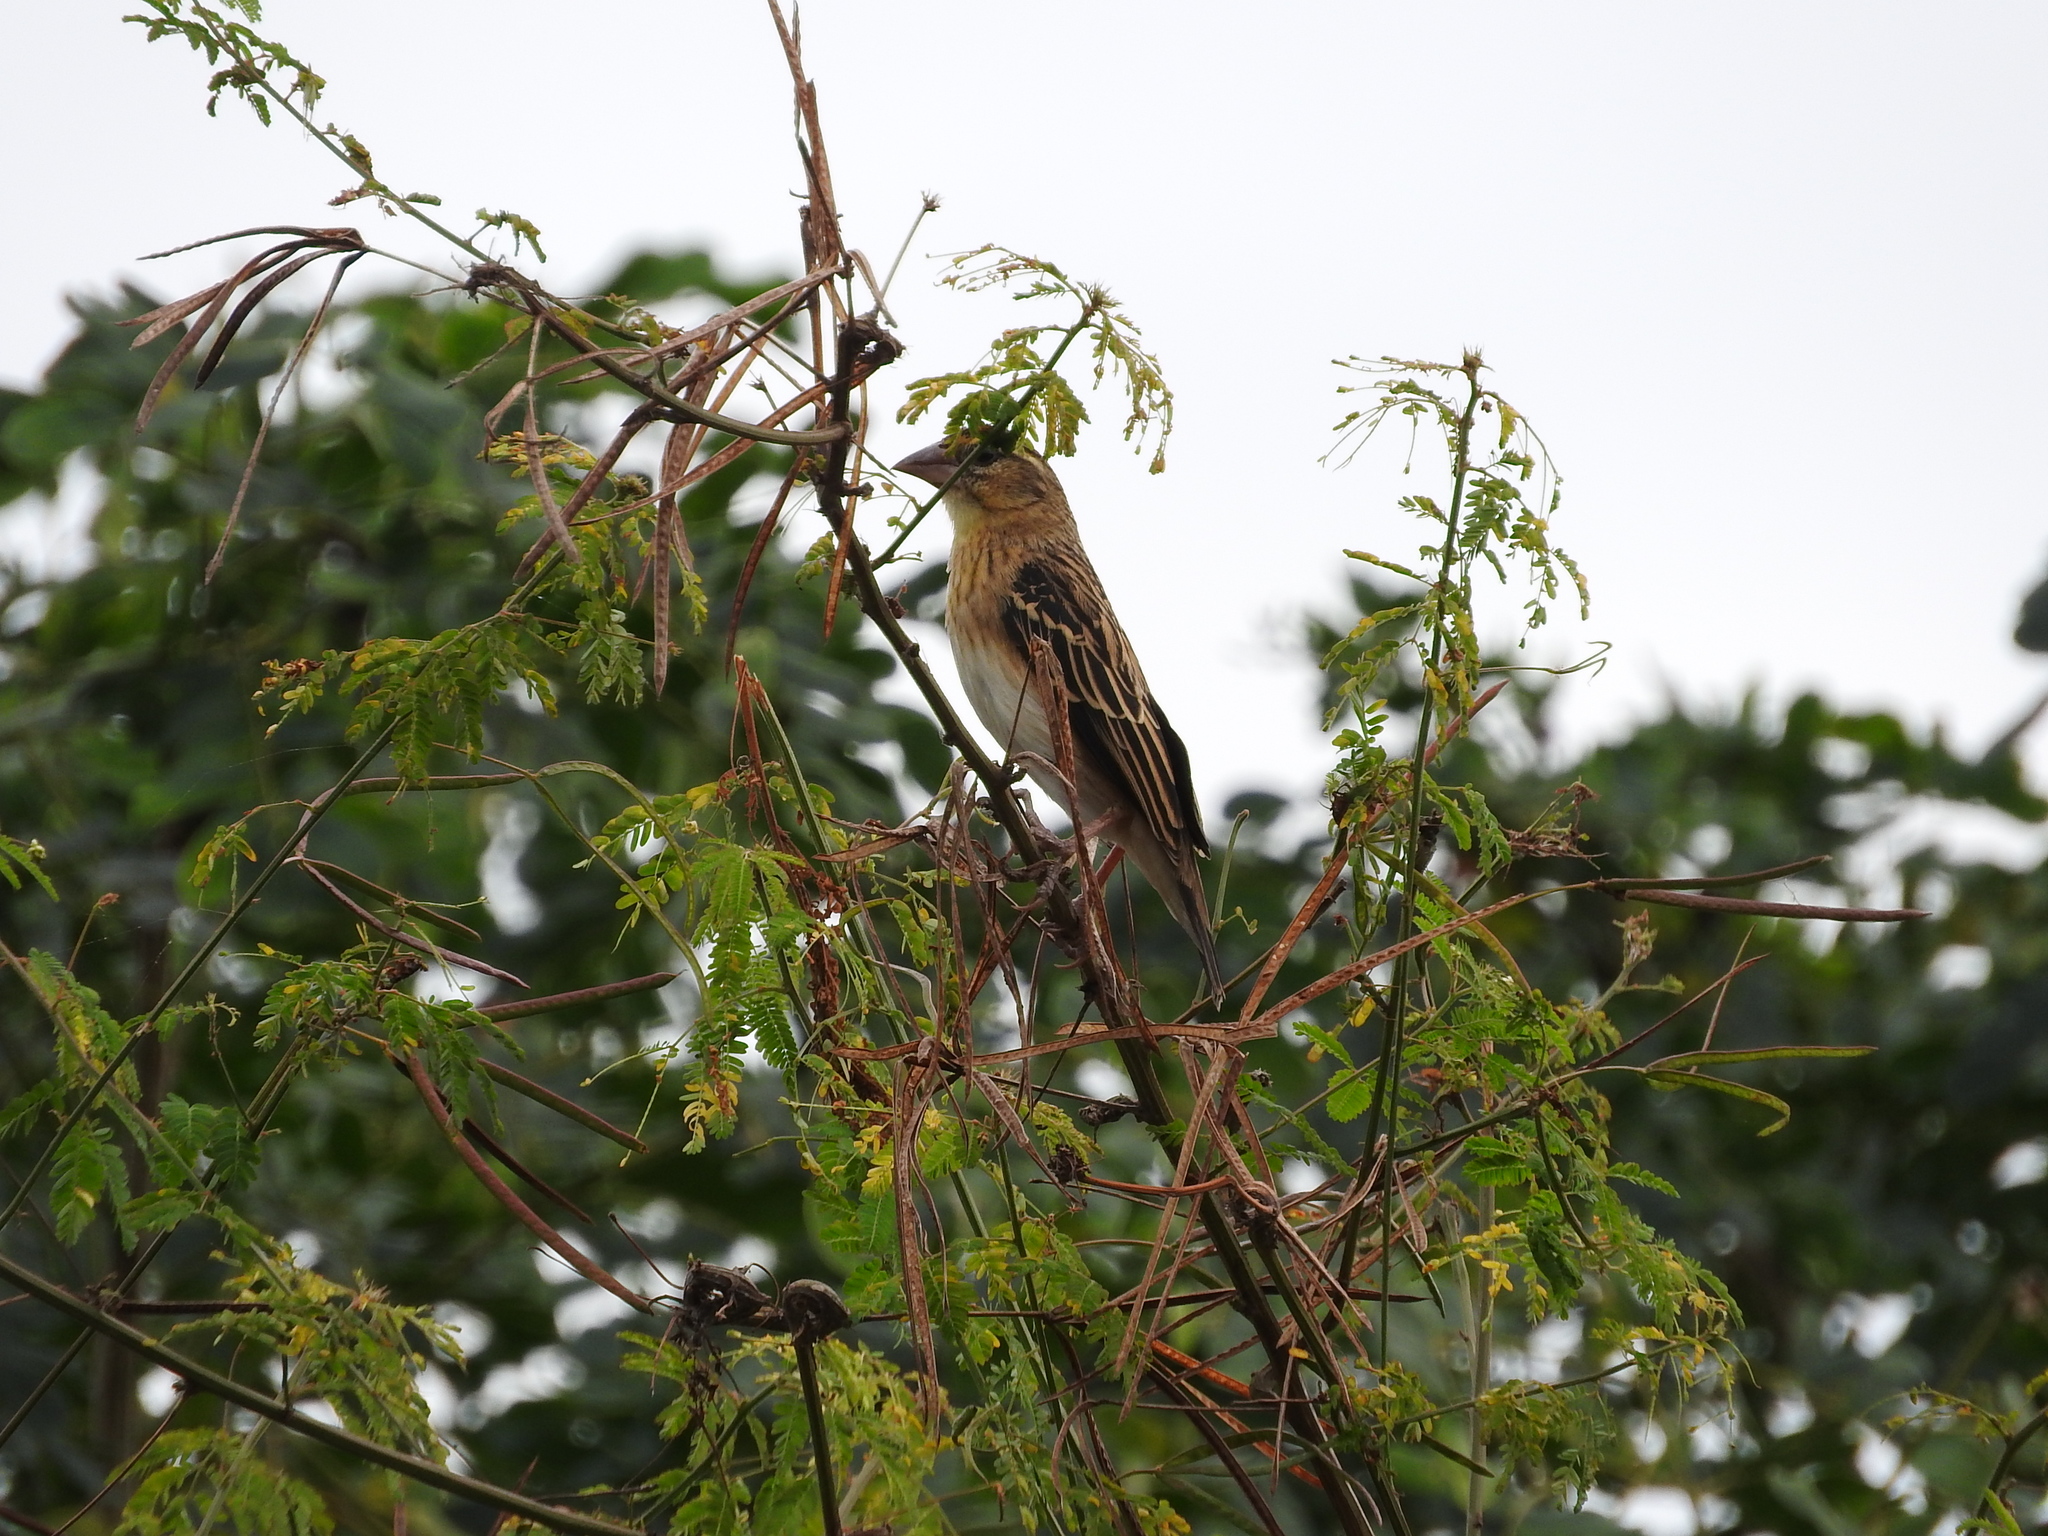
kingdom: Animalia
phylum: Chordata
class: Aves
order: Passeriformes
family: Ploceidae
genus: Euplectes
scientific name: Euplectes aureus
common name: Golden-backed bishop
